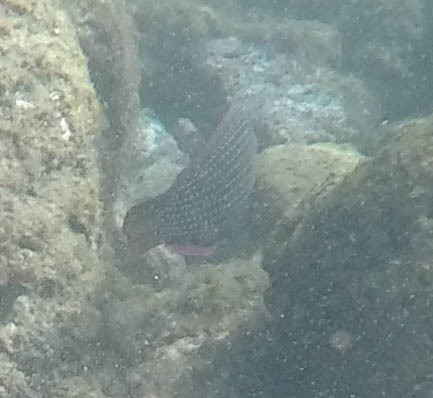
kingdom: Animalia
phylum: Chordata
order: Perciformes
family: Labridae
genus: Anampses
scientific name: Anampses cuvier
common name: Pearl wrasse
